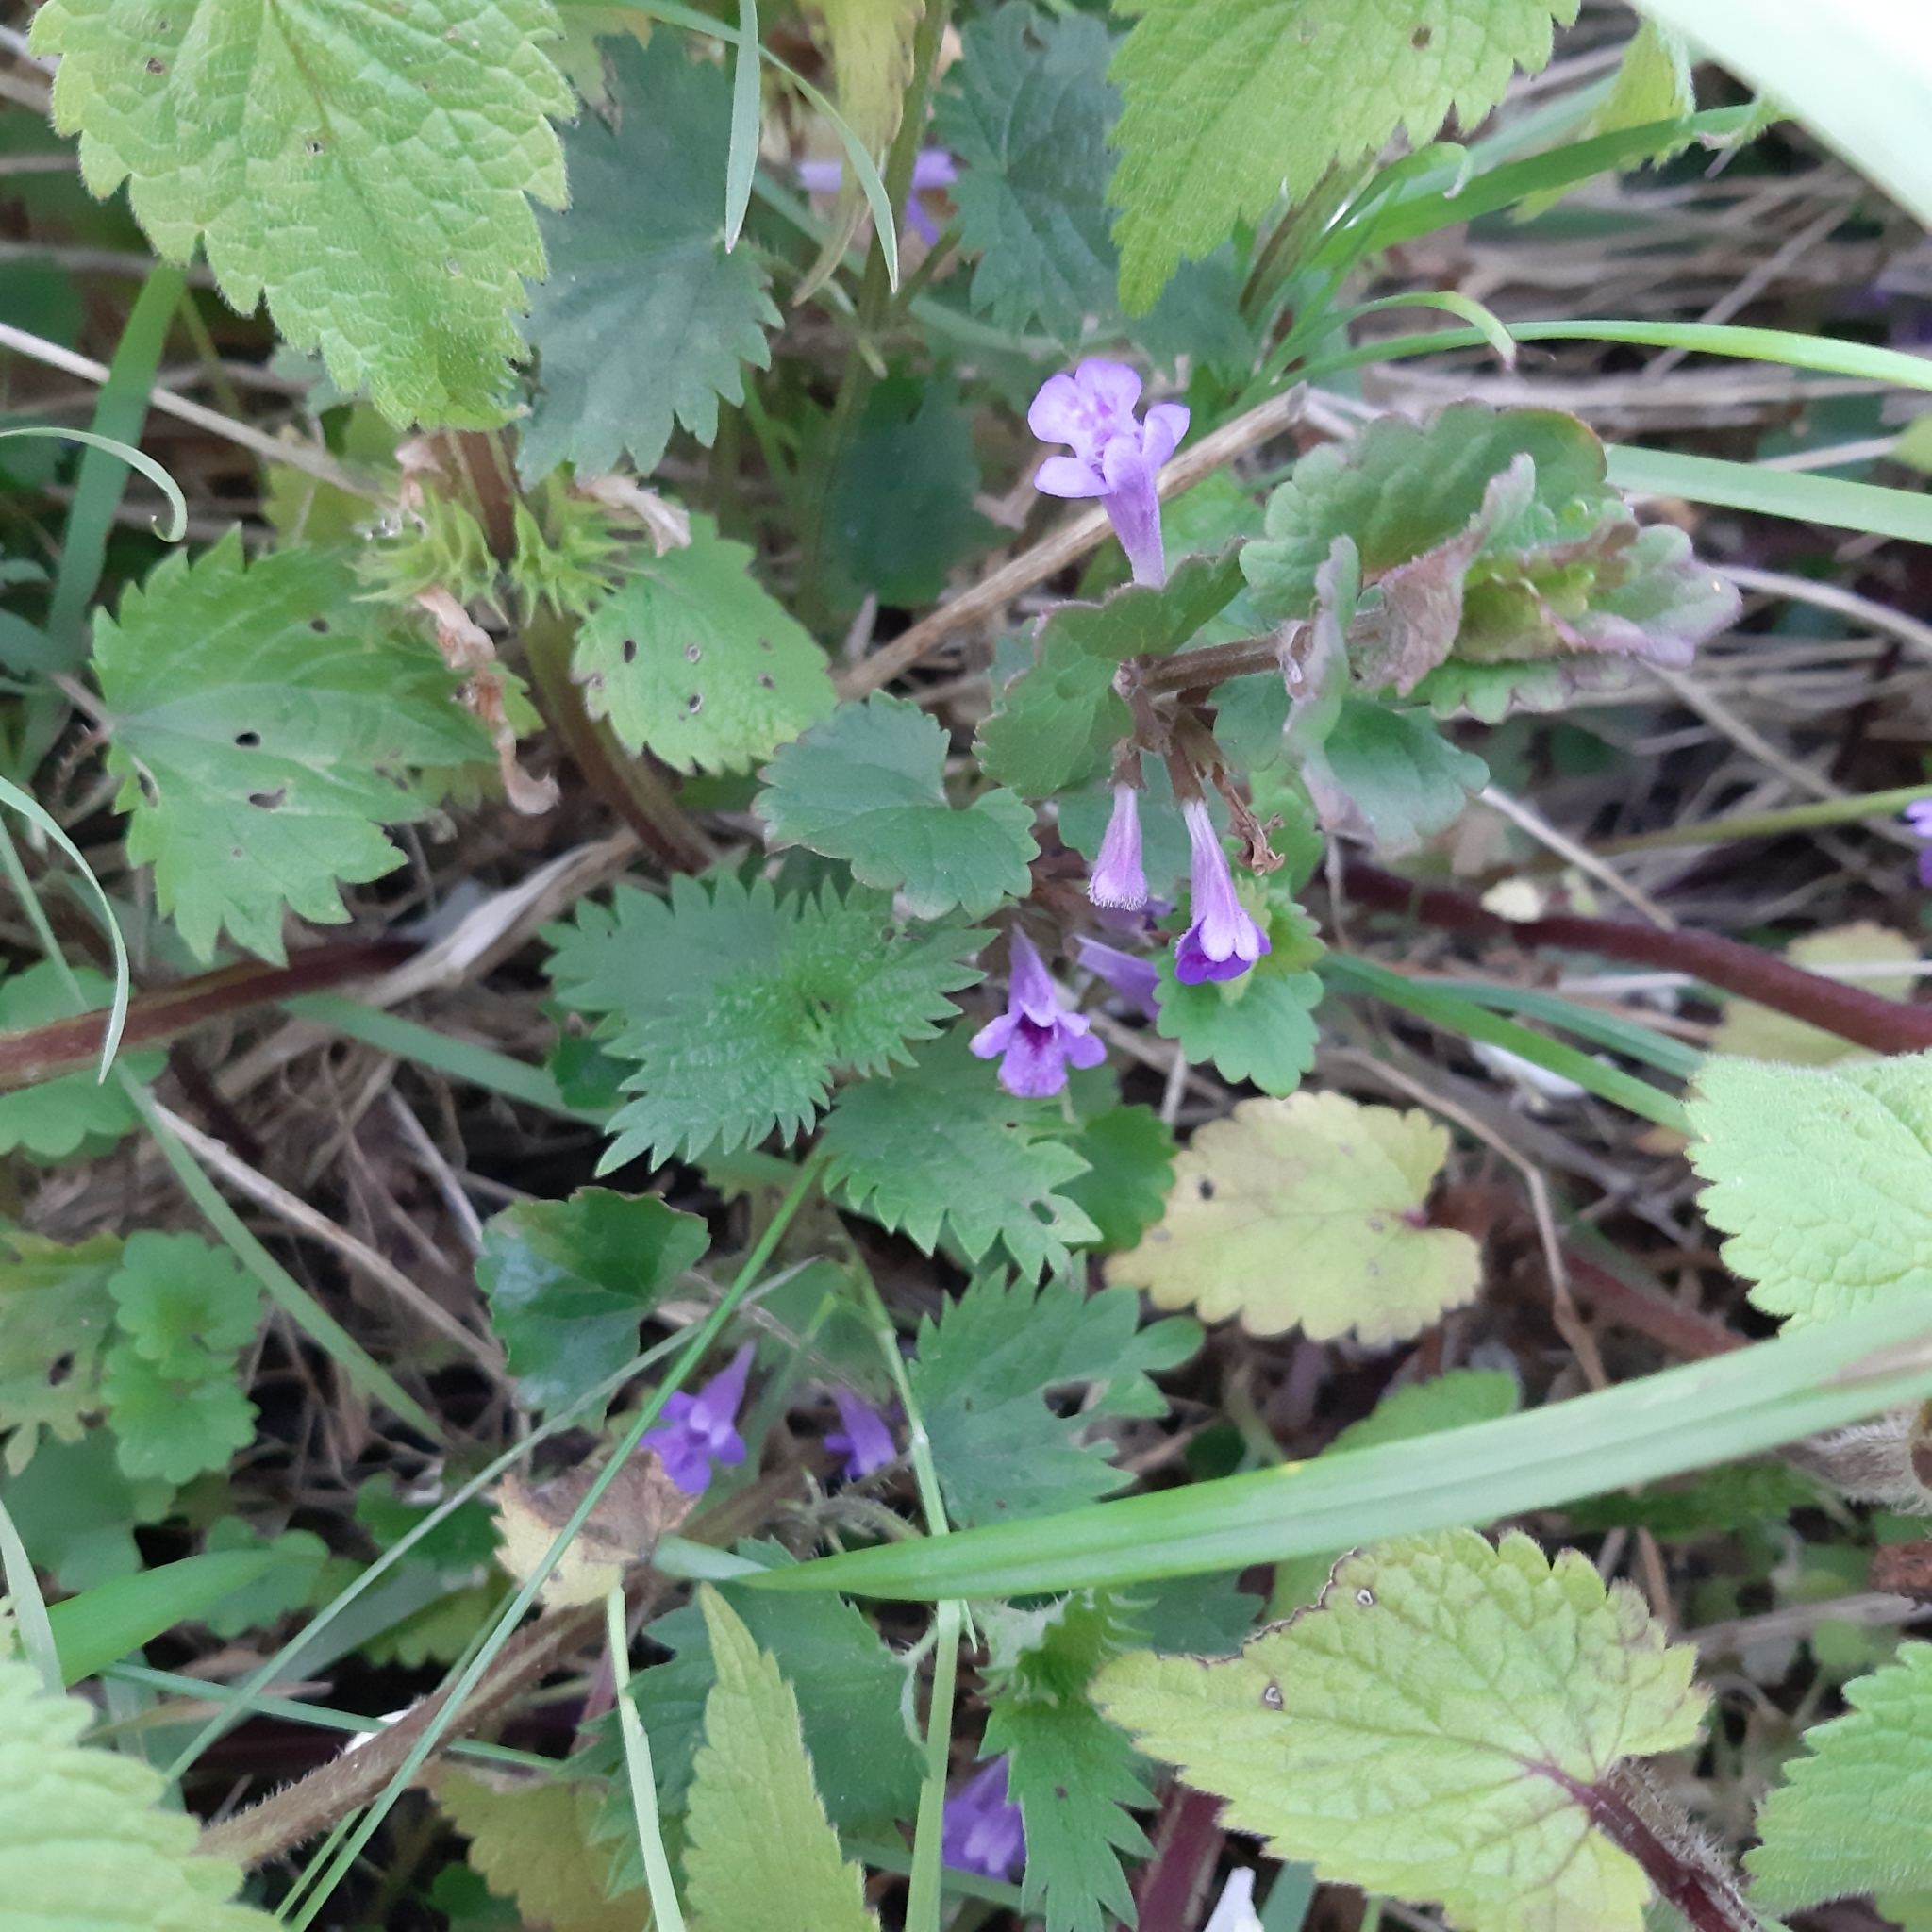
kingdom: Plantae
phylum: Tracheophyta
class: Magnoliopsida
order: Lamiales
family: Lamiaceae
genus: Glechoma
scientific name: Glechoma hederacea
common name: Ground ivy
